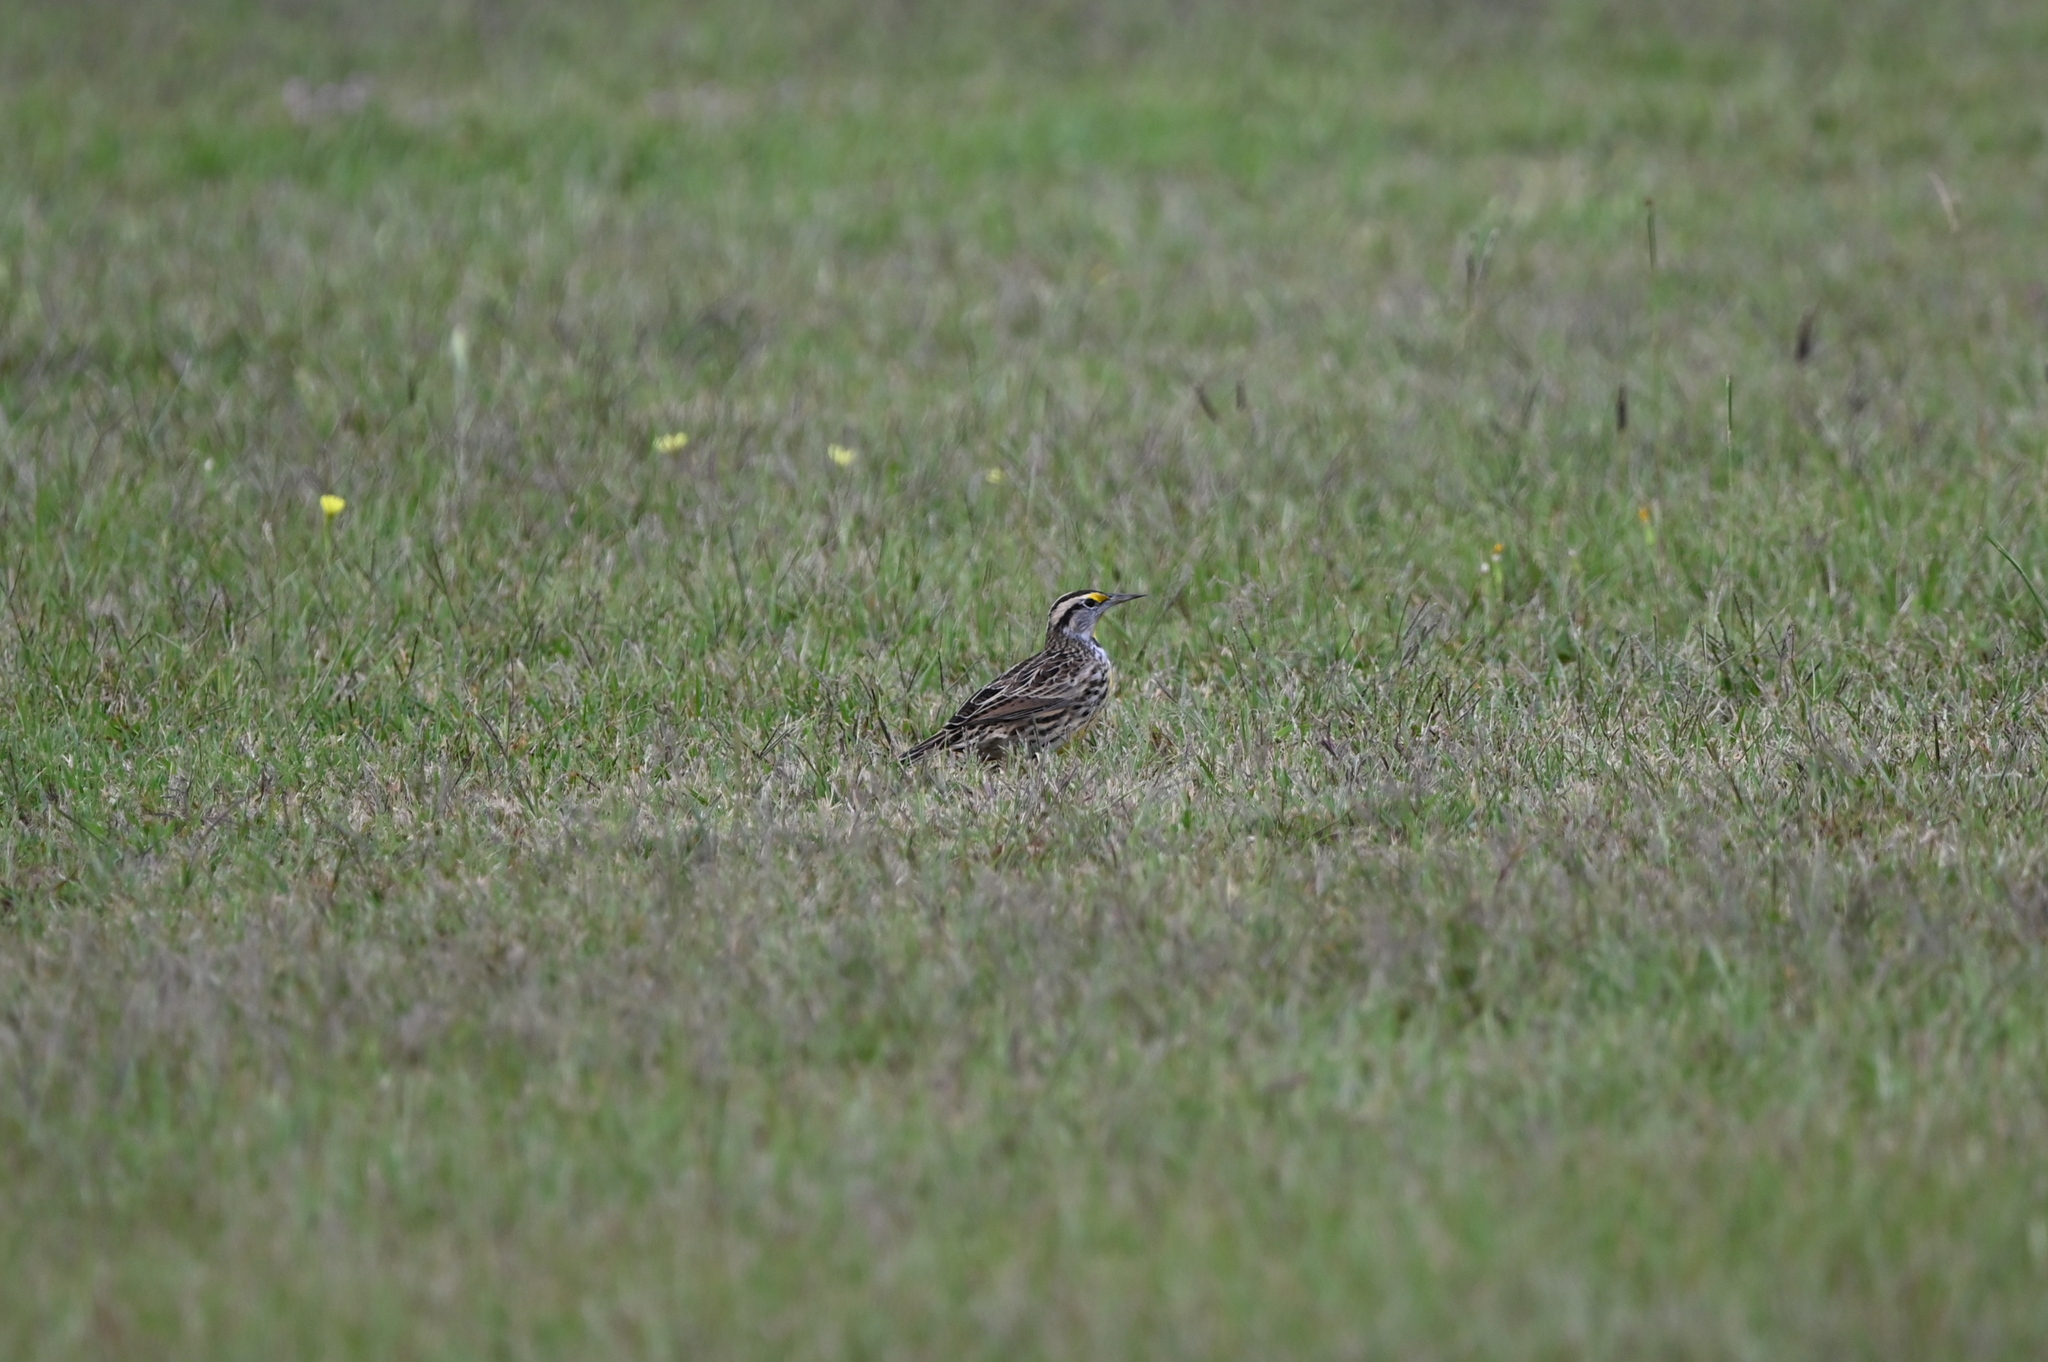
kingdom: Animalia
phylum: Chordata
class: Aves
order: Passeriformes
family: Icteridae
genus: Sturnella
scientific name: Sturnella magna
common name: Eastern meadowlark
